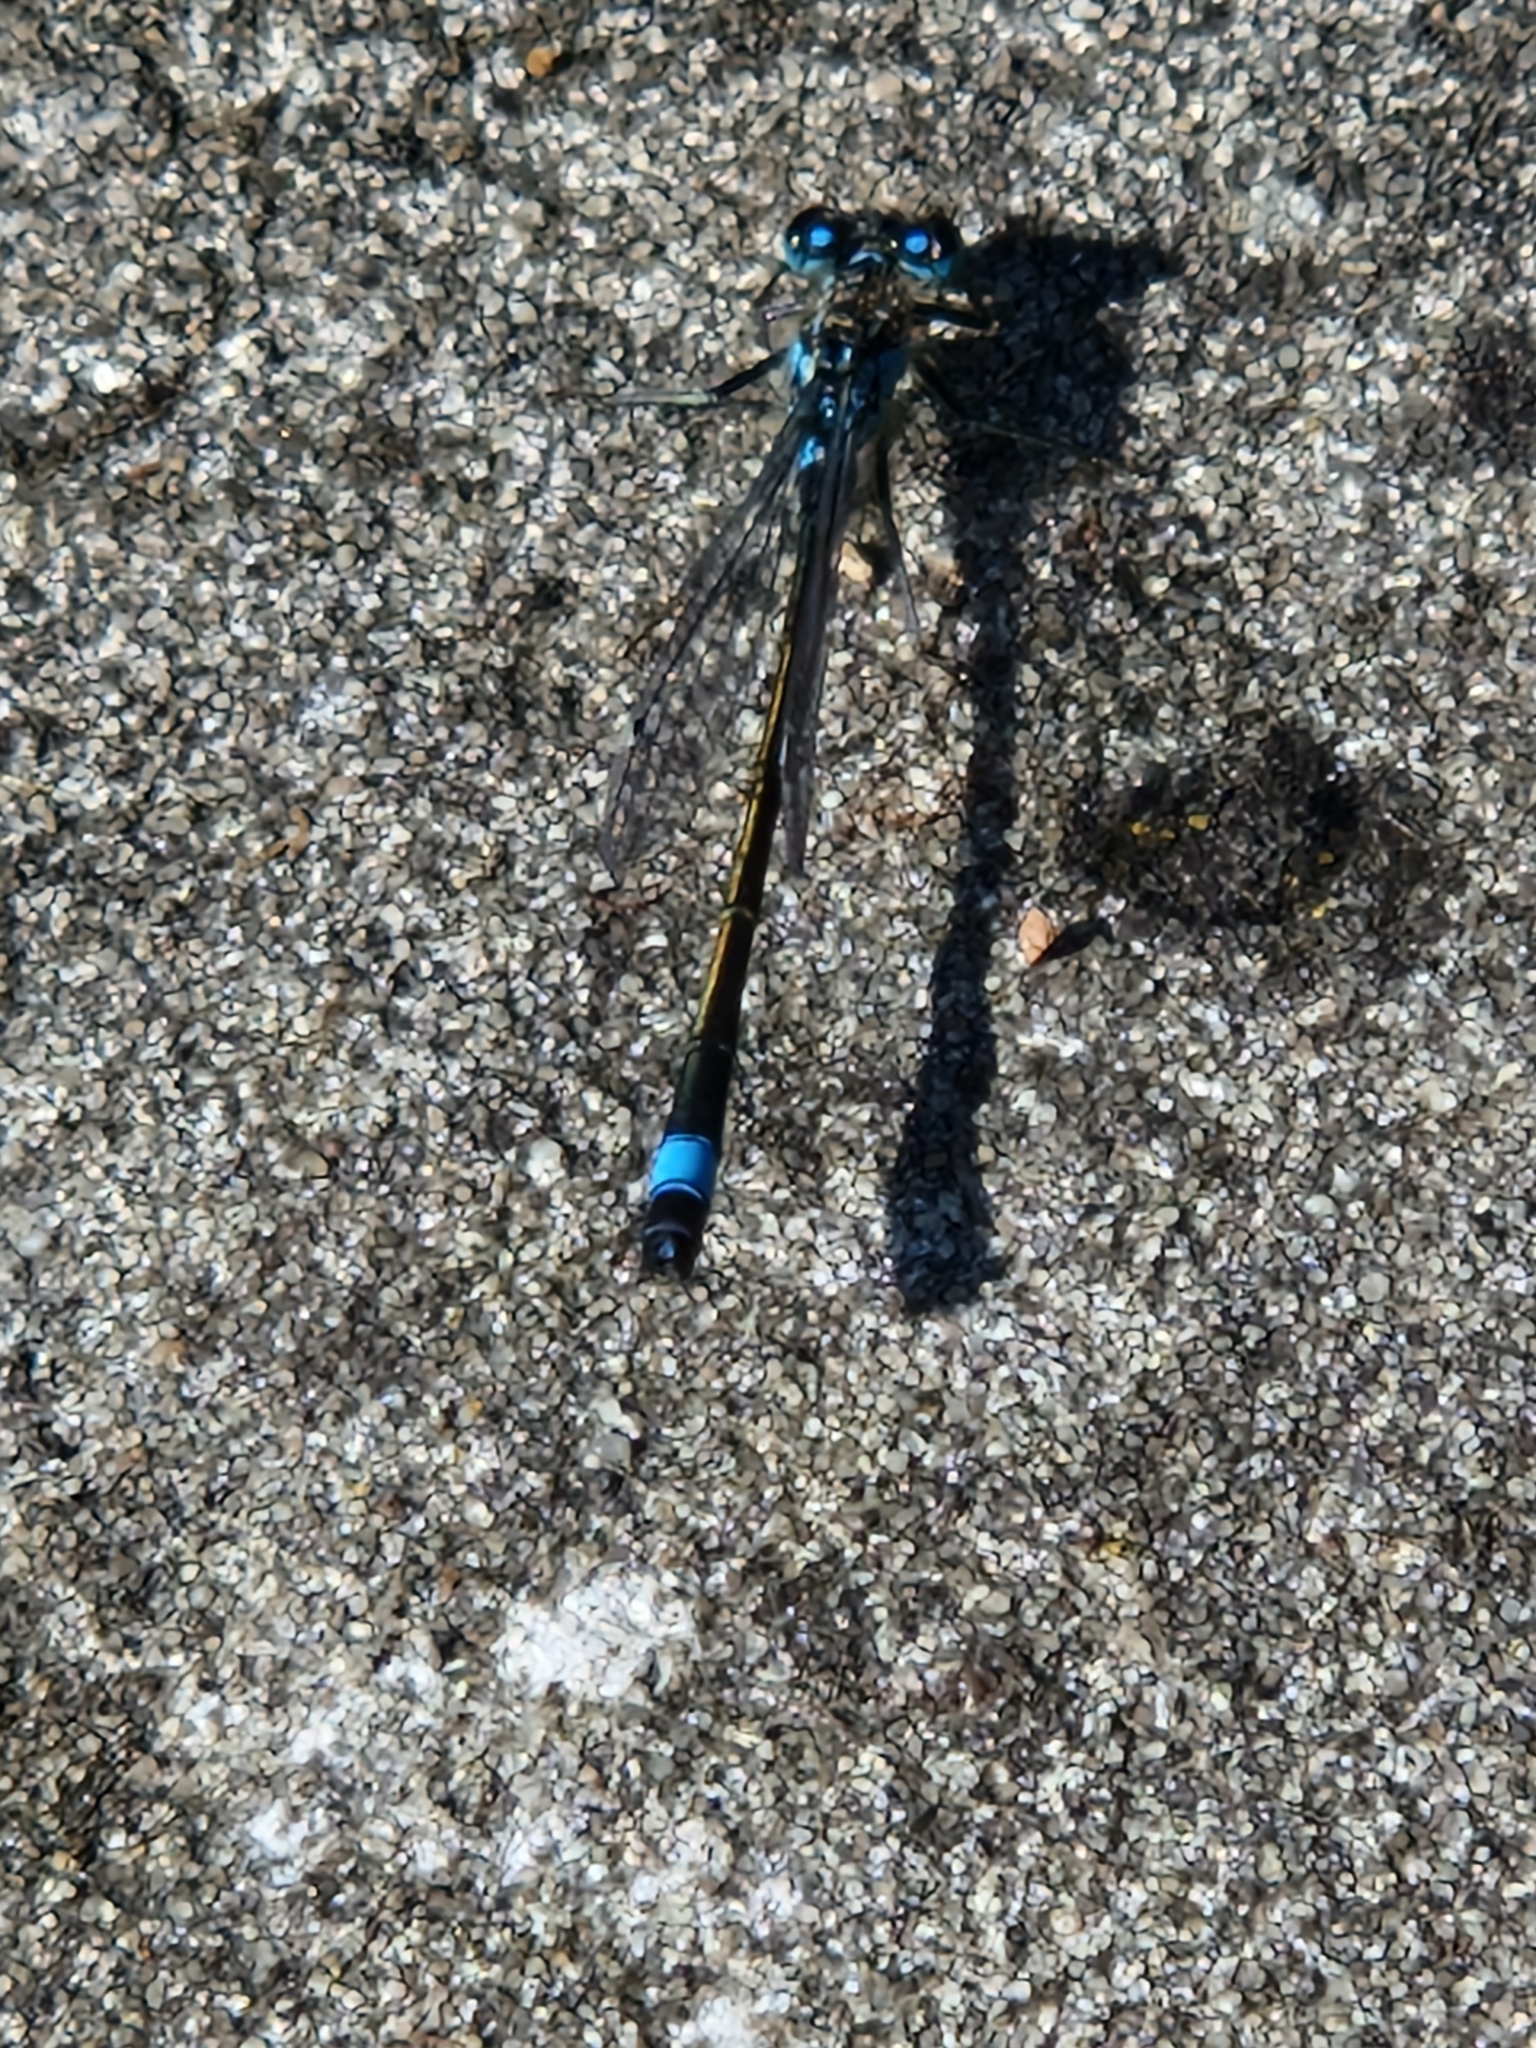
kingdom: Animalia
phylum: Arthropoda
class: Insecta
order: Odonata
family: Coenagrionidae
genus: Ischnura
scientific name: Ischnura elegans
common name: Blue-tailed damselfly
